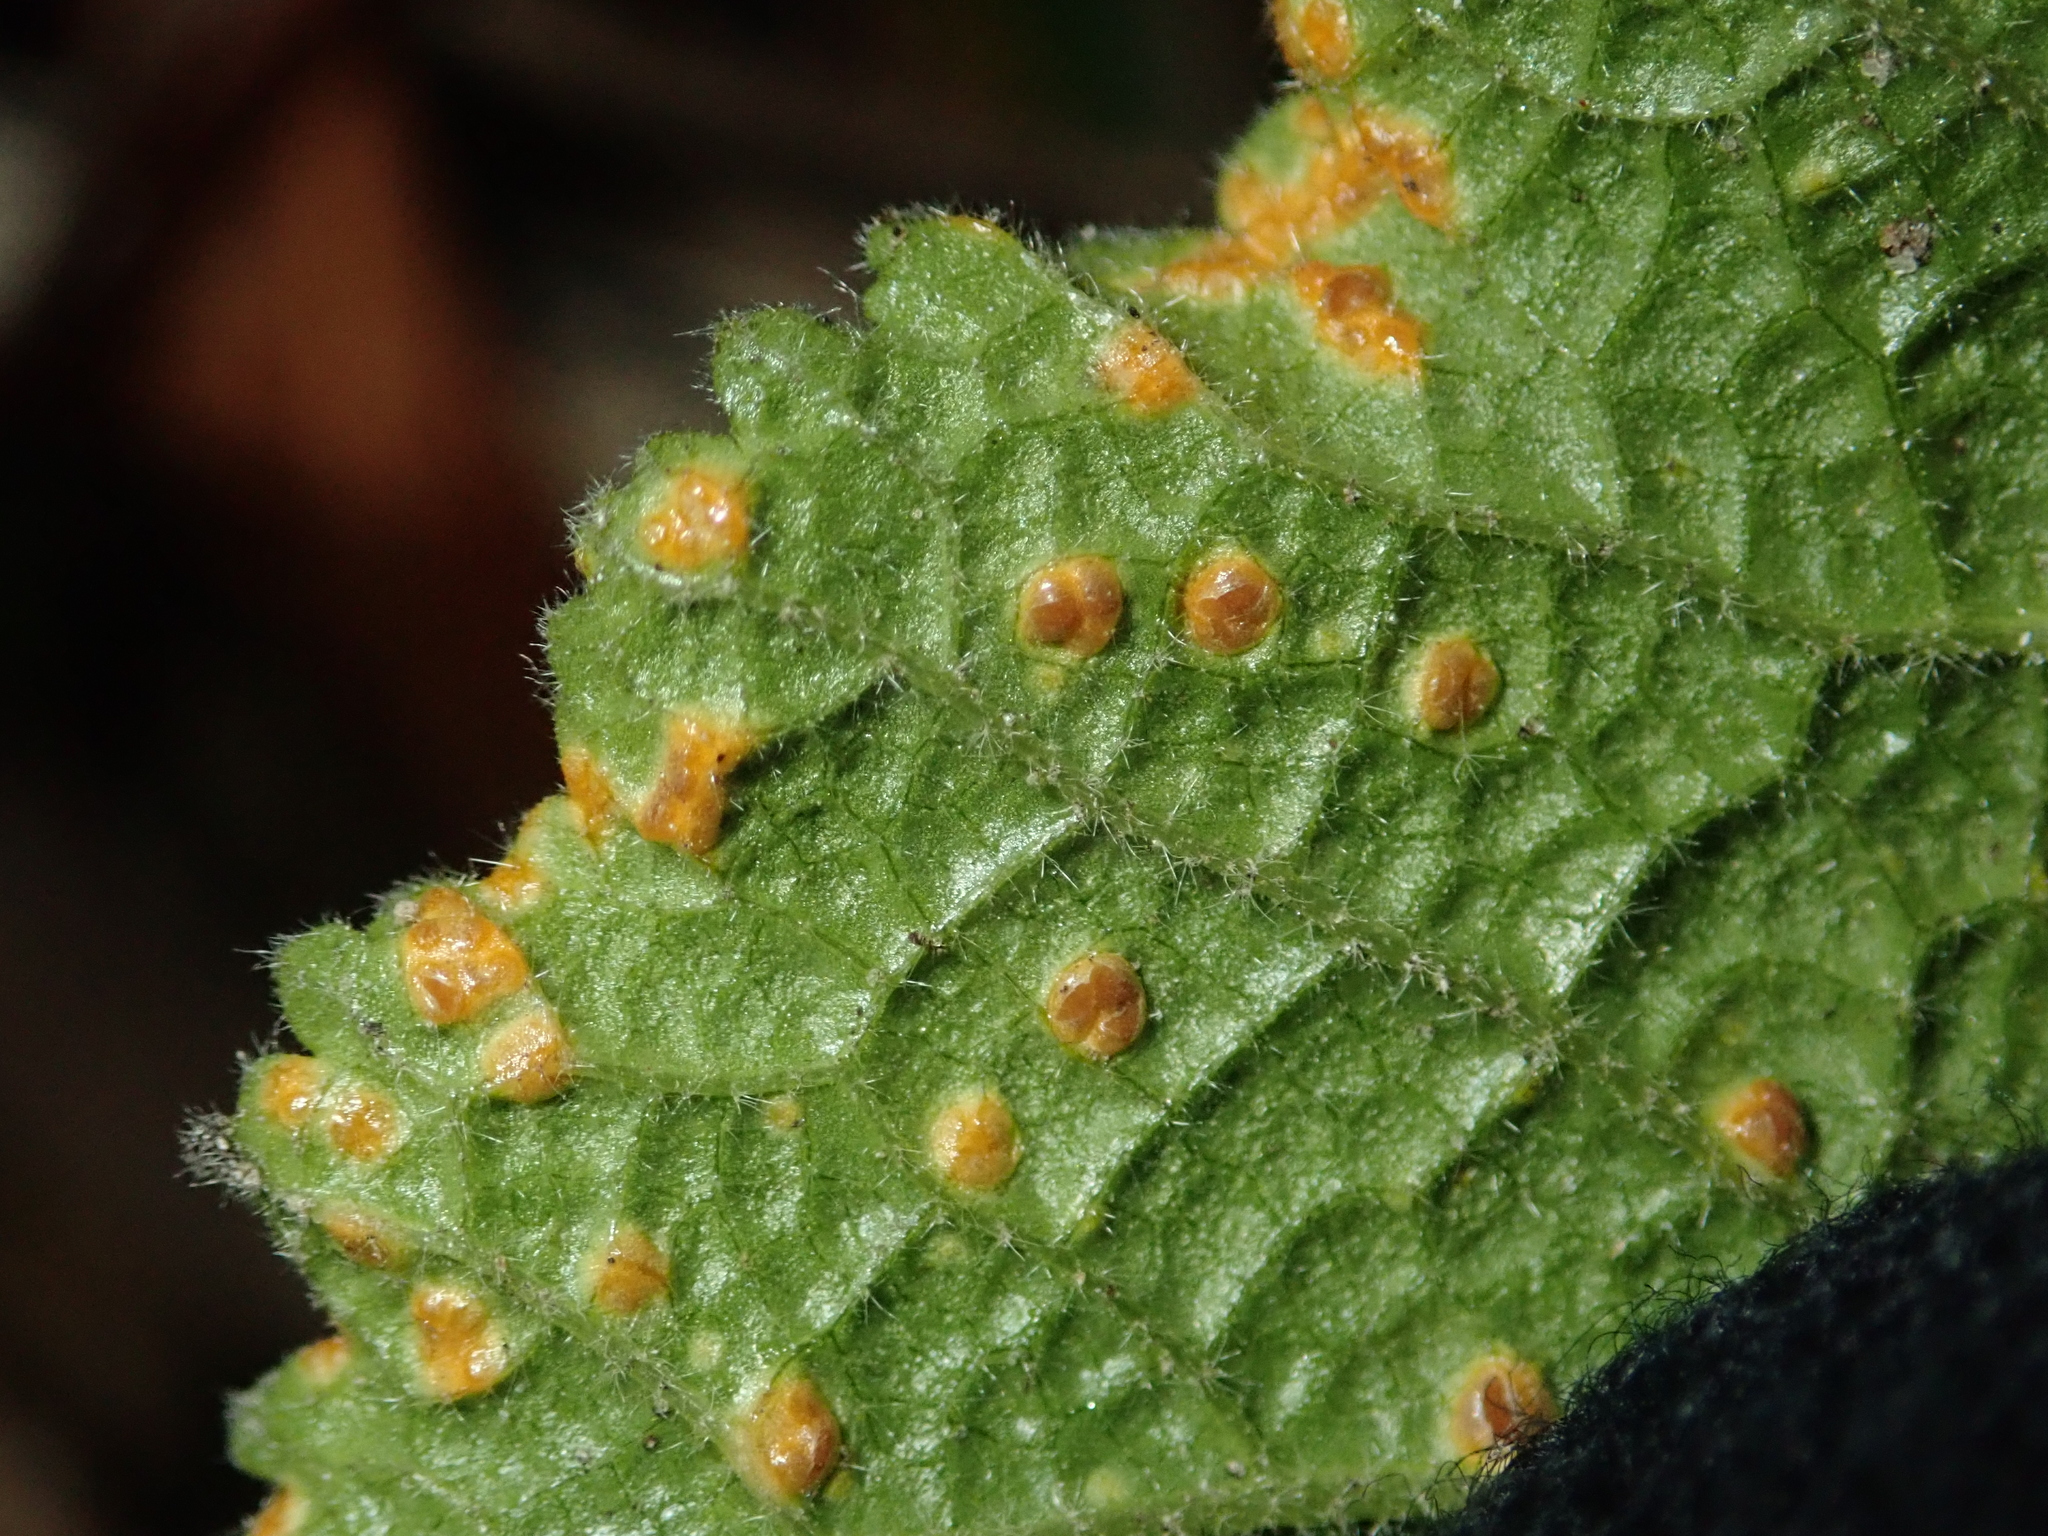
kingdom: Fungi
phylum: Basidiomycota
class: Pucciniomycetes
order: Pucciniales
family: Pucciniaceae
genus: Puccinia
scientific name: Puccinia malvacearum
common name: Hollyhock rust
